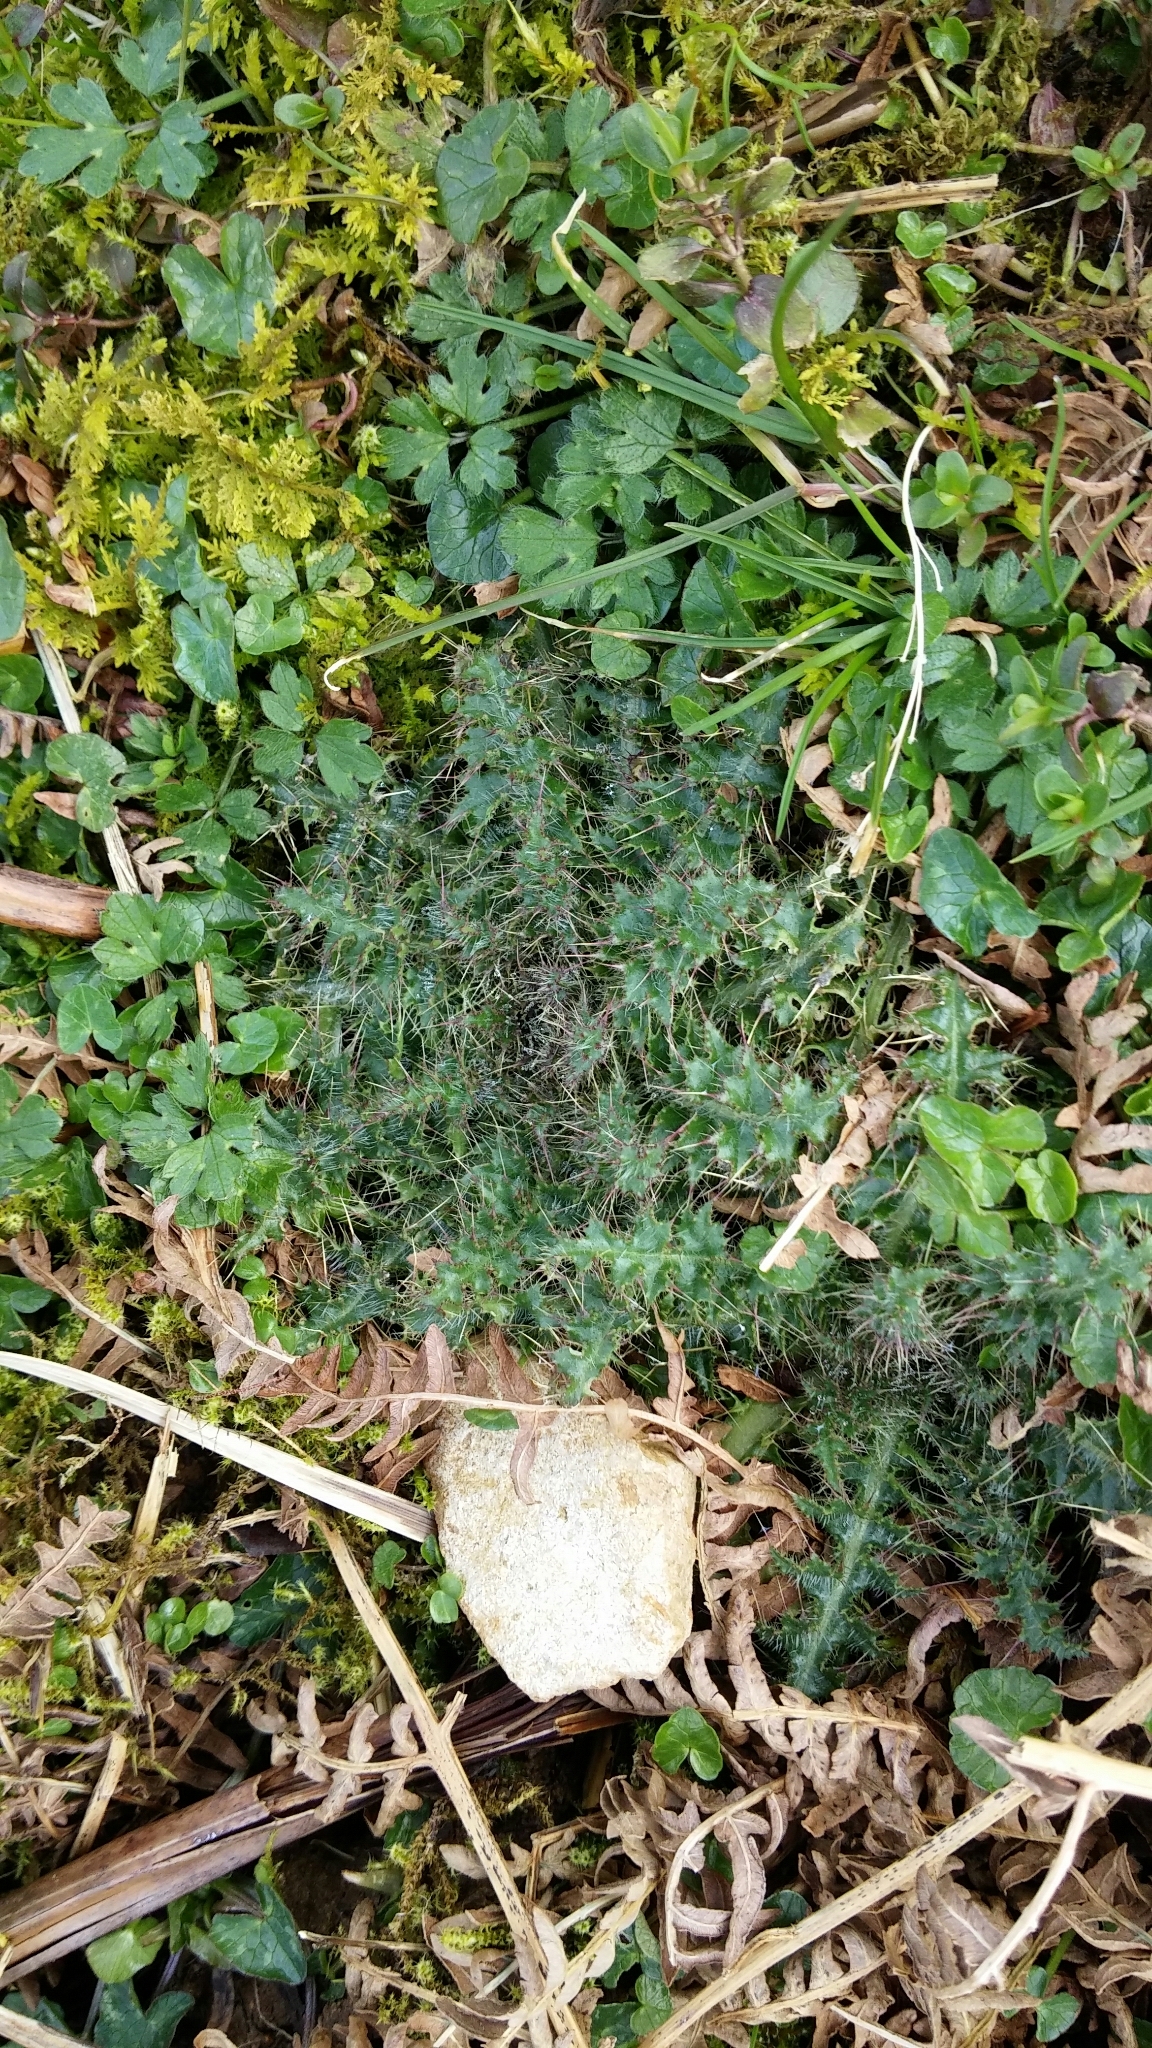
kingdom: Plantae
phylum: Tracheophyta
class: Magnoliopsida
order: Asterales
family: Asteraceae
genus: Cirsium
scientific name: Cirsium palustre
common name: Marsh thistle
